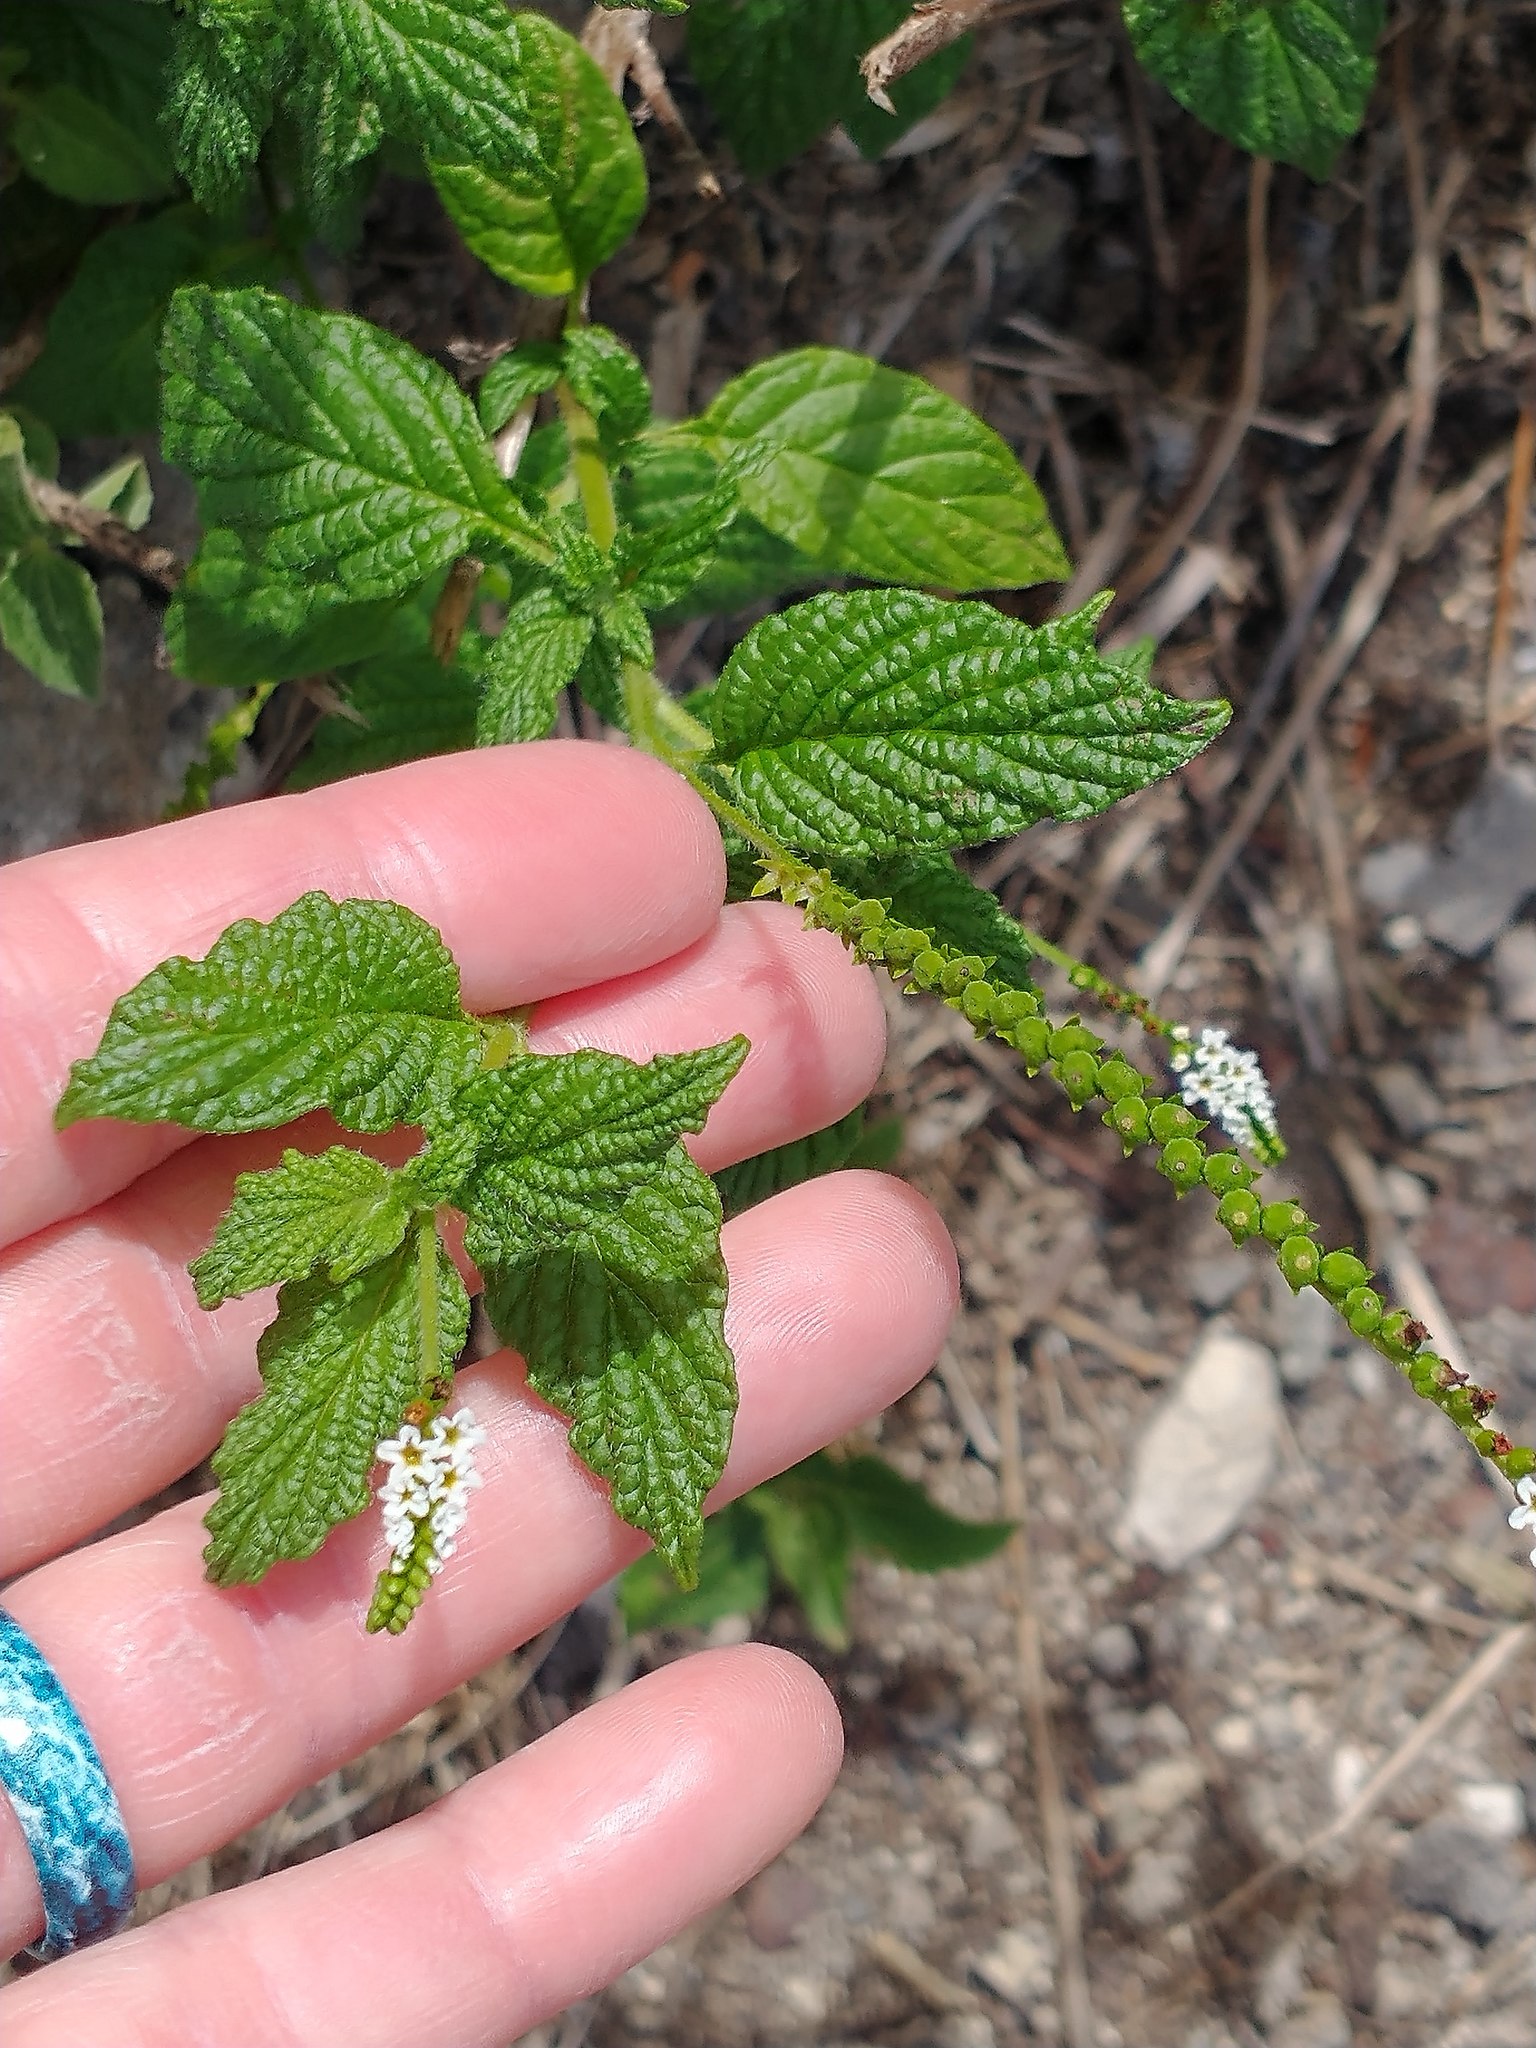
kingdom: Plantae
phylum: Tracheophyta
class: Magnoliopsida
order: Boraginales
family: Heliotropiaceae
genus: Heliotropium
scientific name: Heliotropium angiospermum
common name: Eye bright
